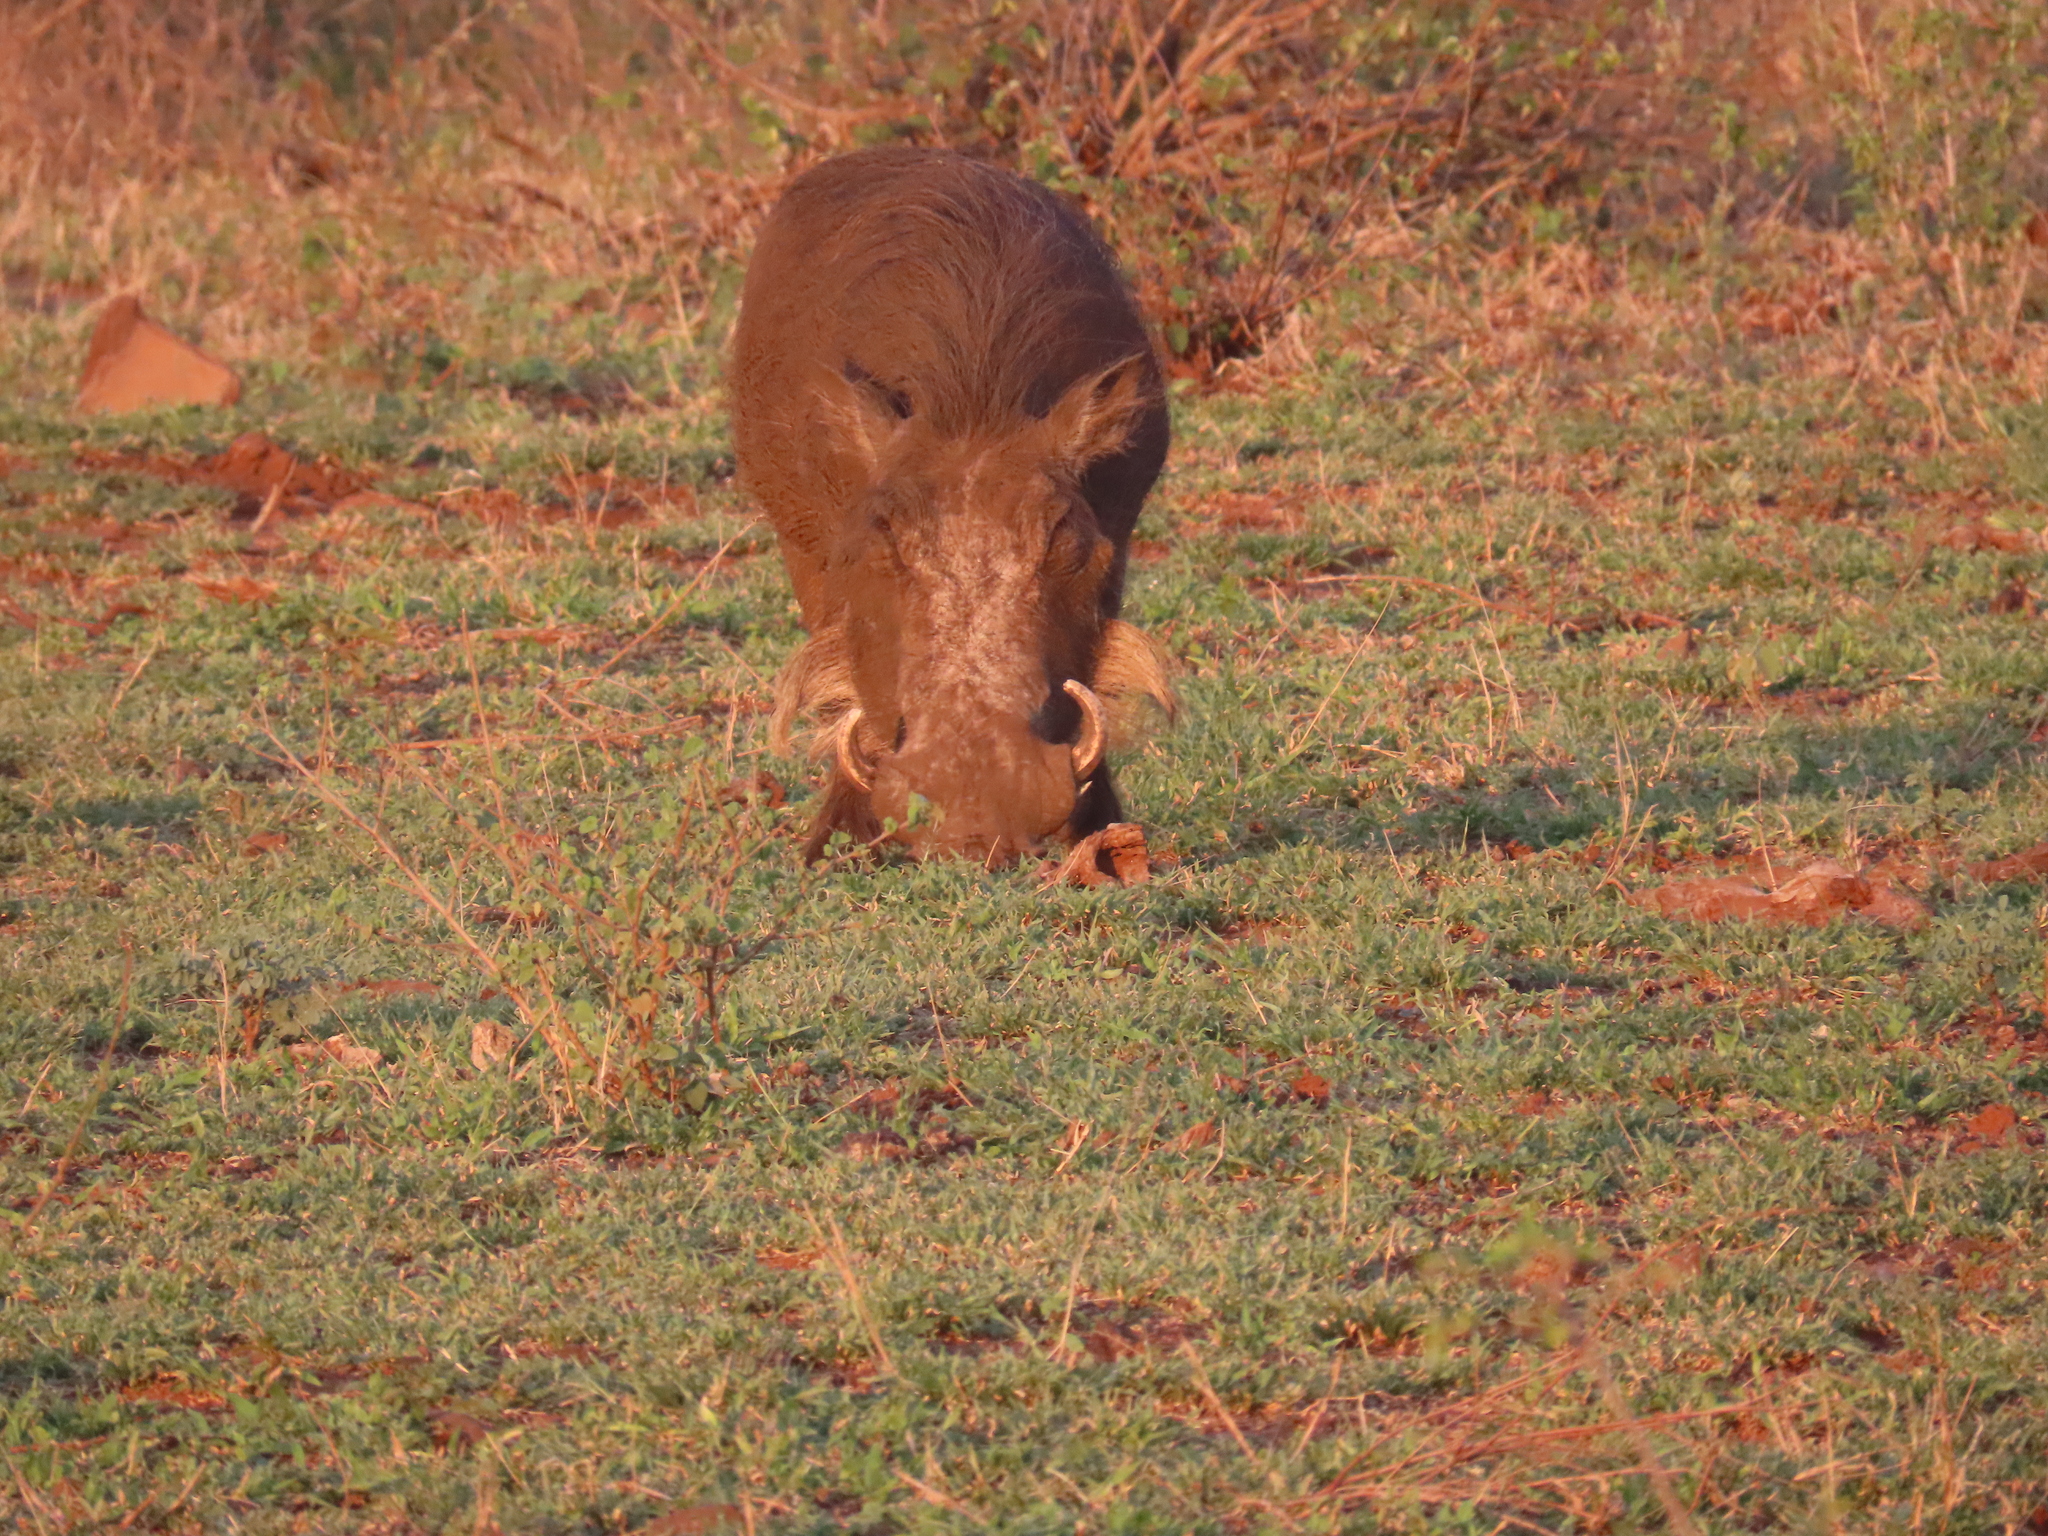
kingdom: Animalia
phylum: Chordata
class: Mammalia
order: Artiodactyla
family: Suidae
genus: Phacochoerus
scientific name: Phacochoerus africanus
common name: Common warthog
